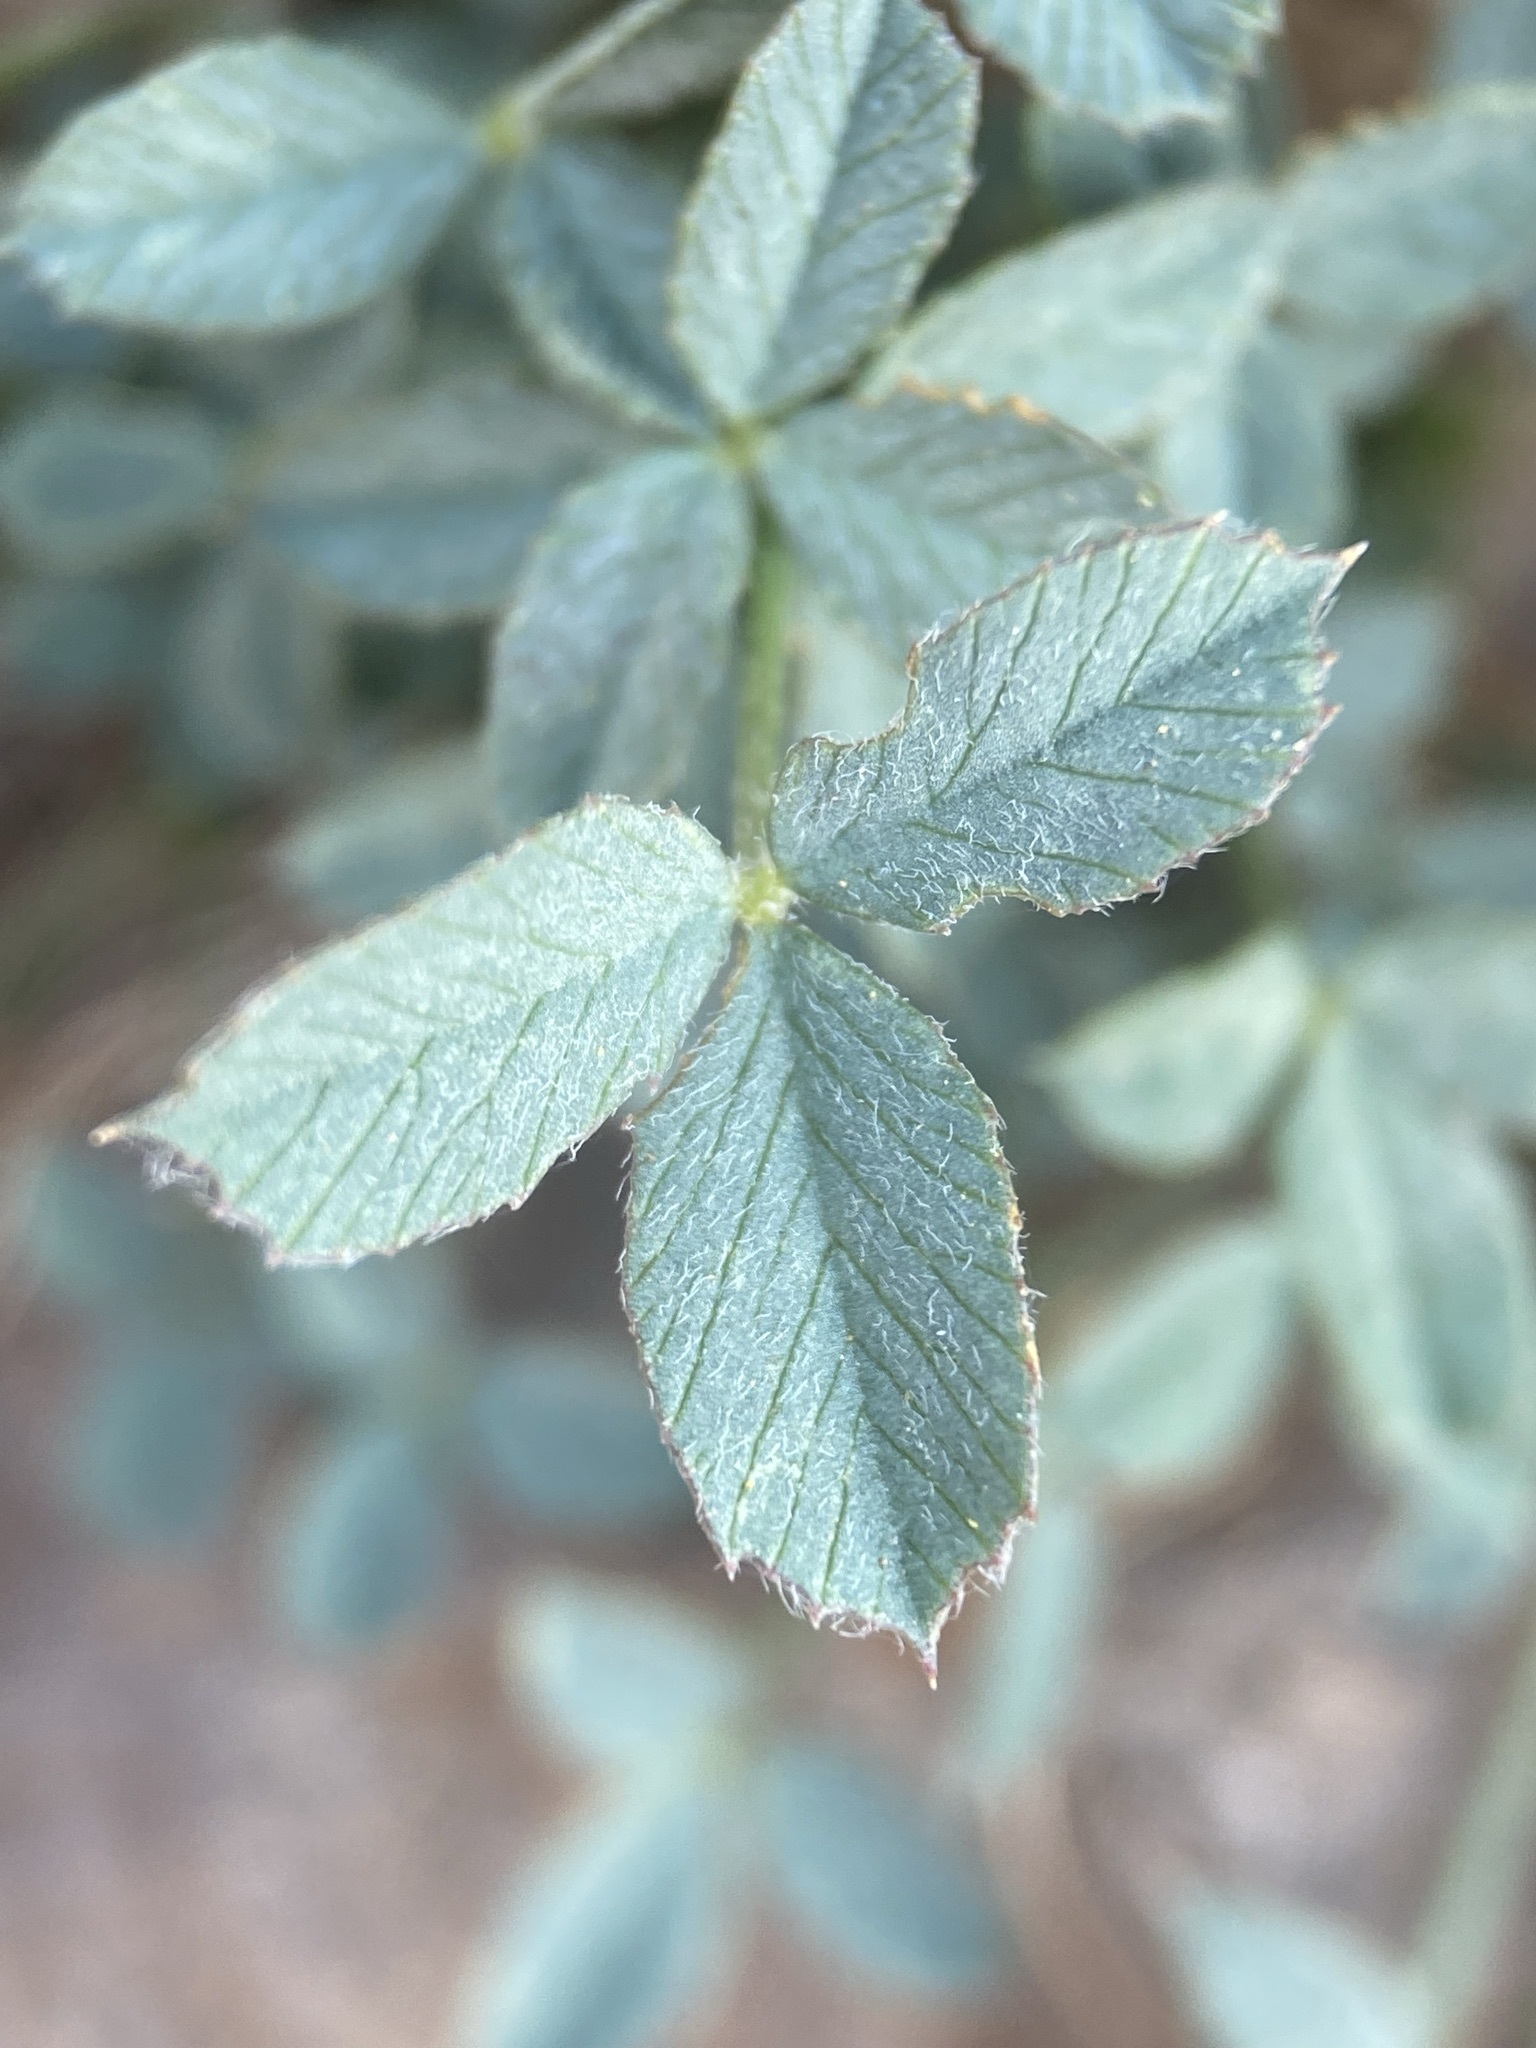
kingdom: Plantae
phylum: Tracheophyta
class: Magnoliopsida
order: Fabales
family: Fabaceae
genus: Trifolium
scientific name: Trifolium longipes
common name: Long-stalk clover
